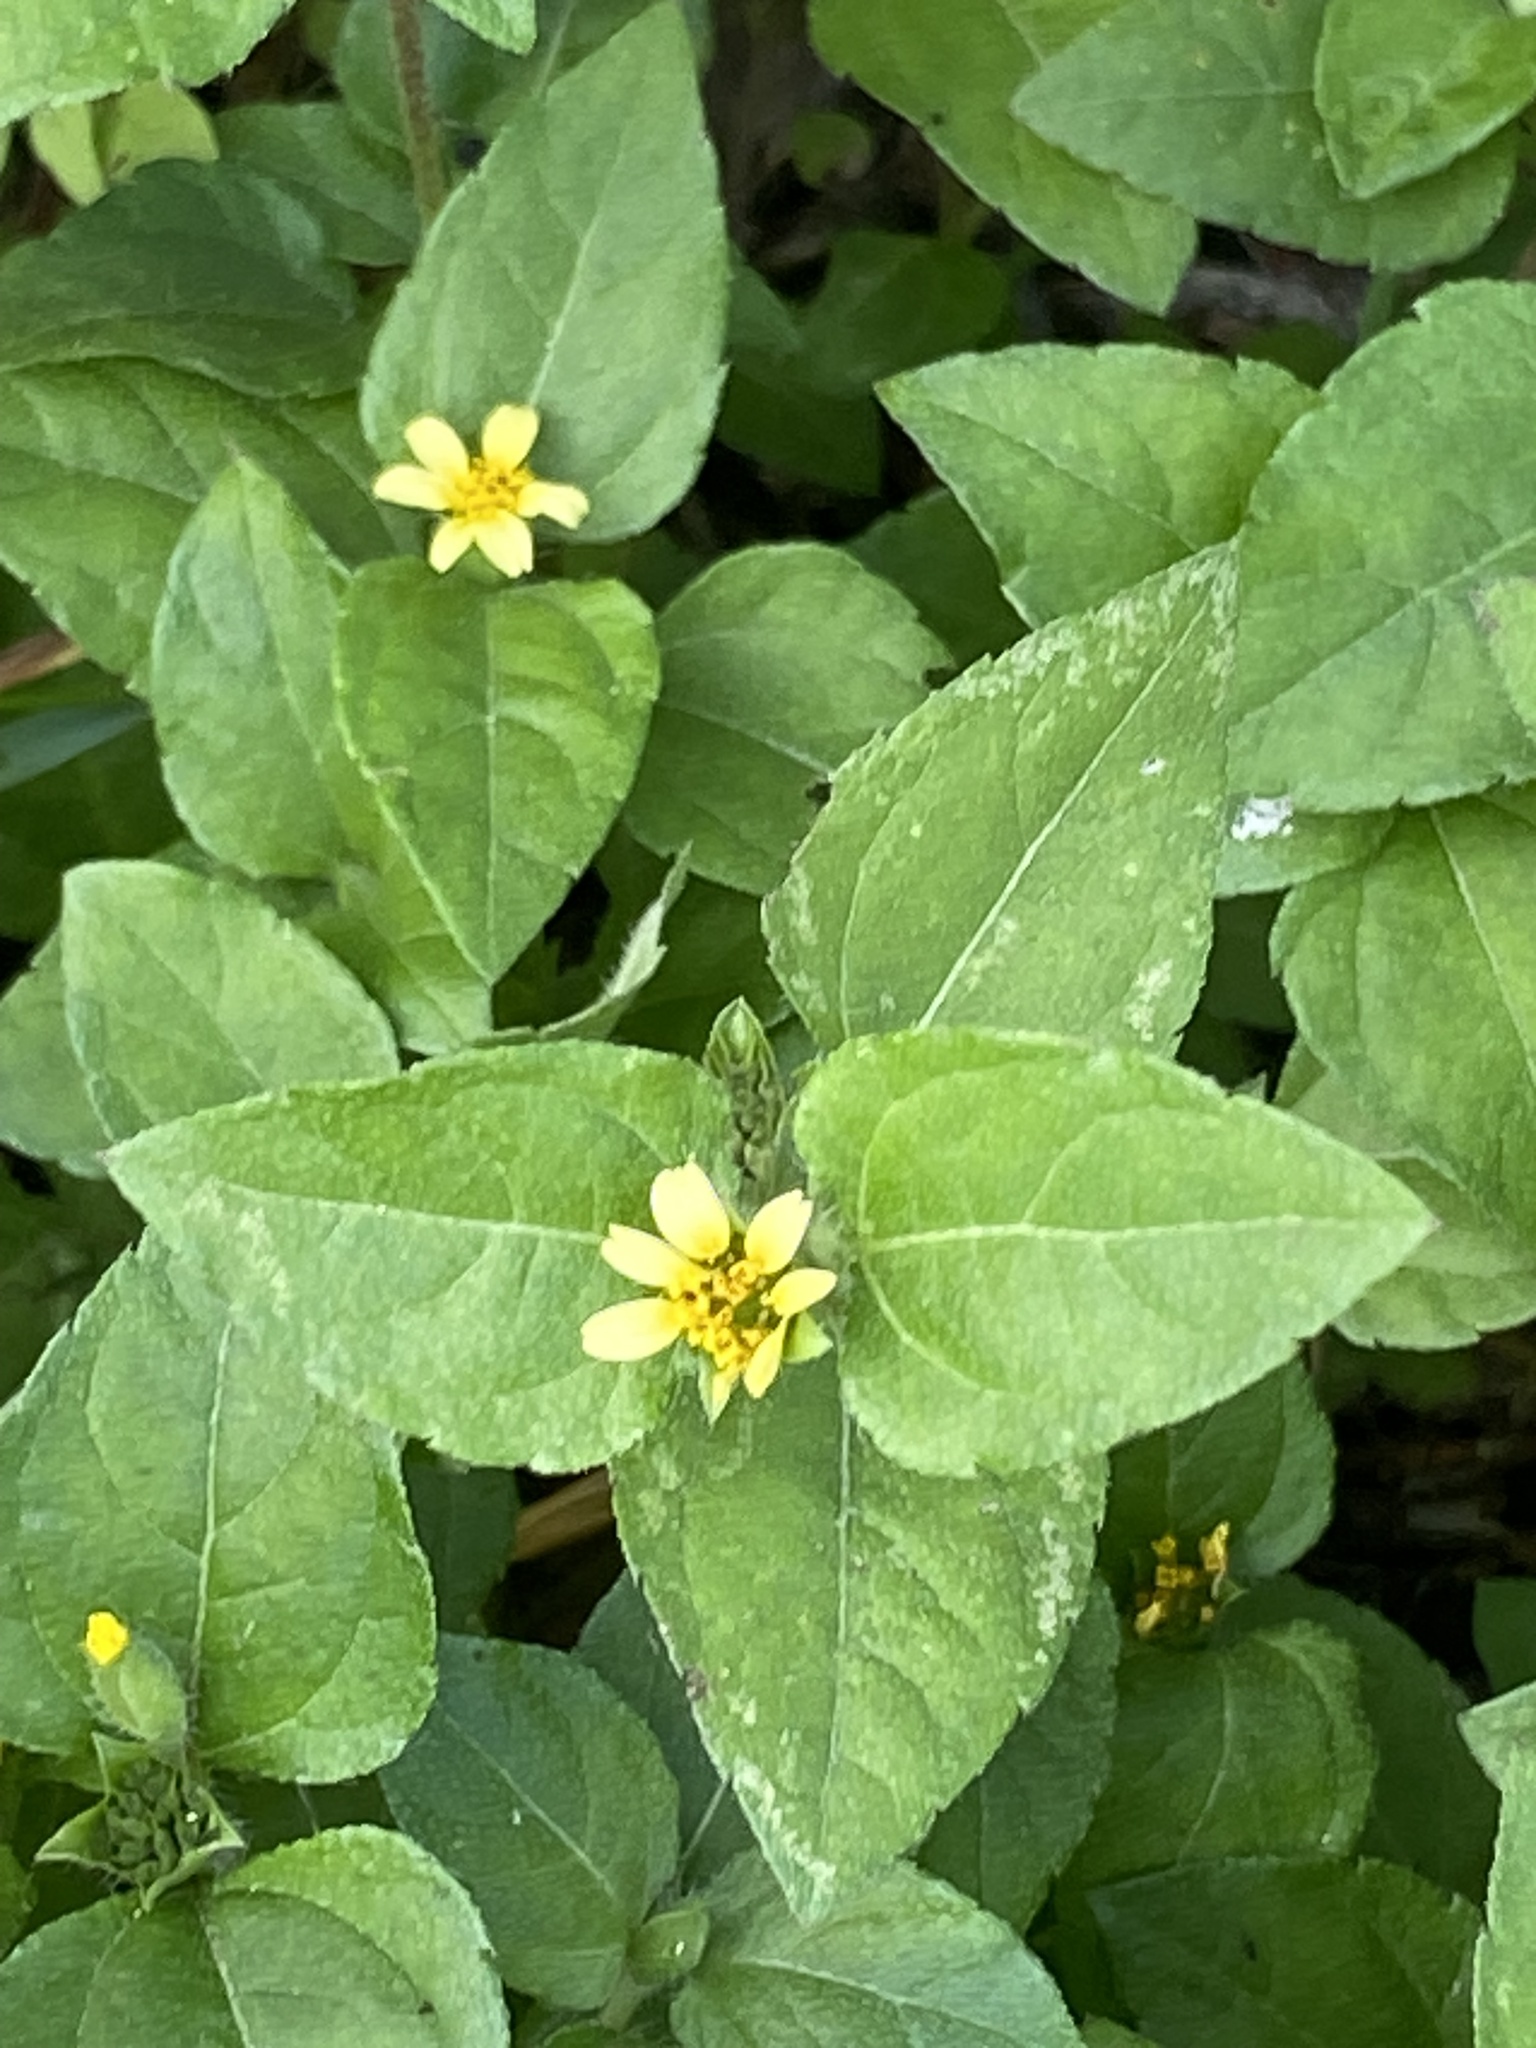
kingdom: Plantae
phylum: Tracheophyta
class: Magnoliopsida
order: Asterales
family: Asteraceae
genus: Calyptocarpus
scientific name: Calyptocarpus vialis
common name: Straggler daisy
